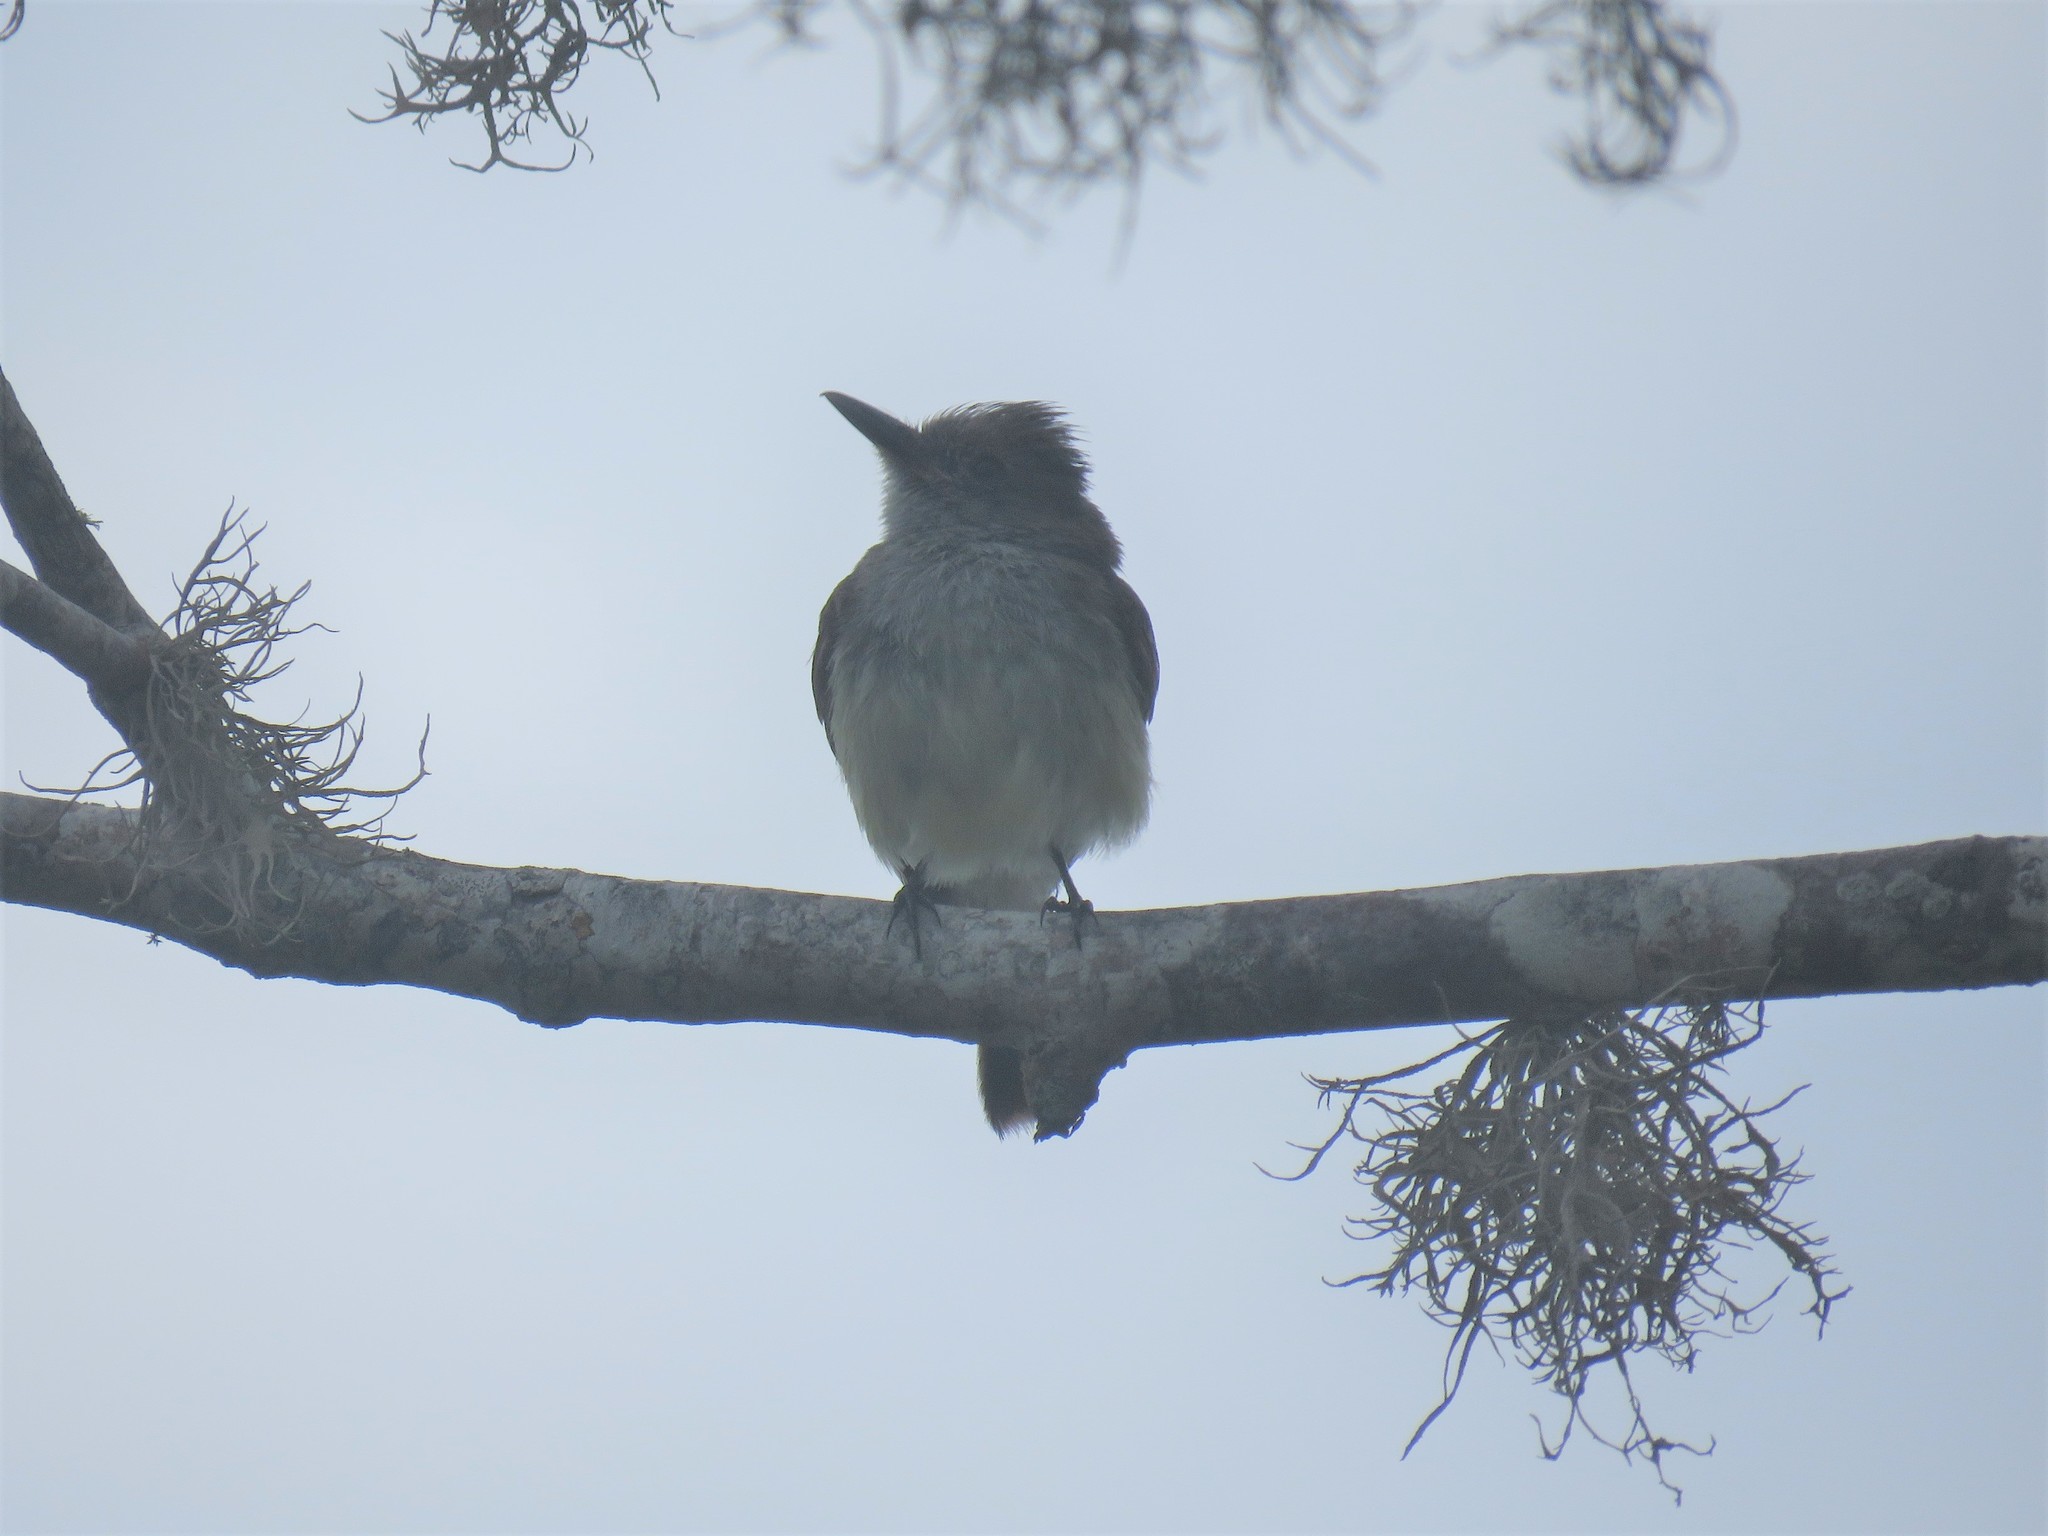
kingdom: Animalia
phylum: Chordata
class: Aves
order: Passeriformes
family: Tyrannidae
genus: Myiarchus
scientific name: Myiarchus magnirostris
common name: Galapagos flycatcher
